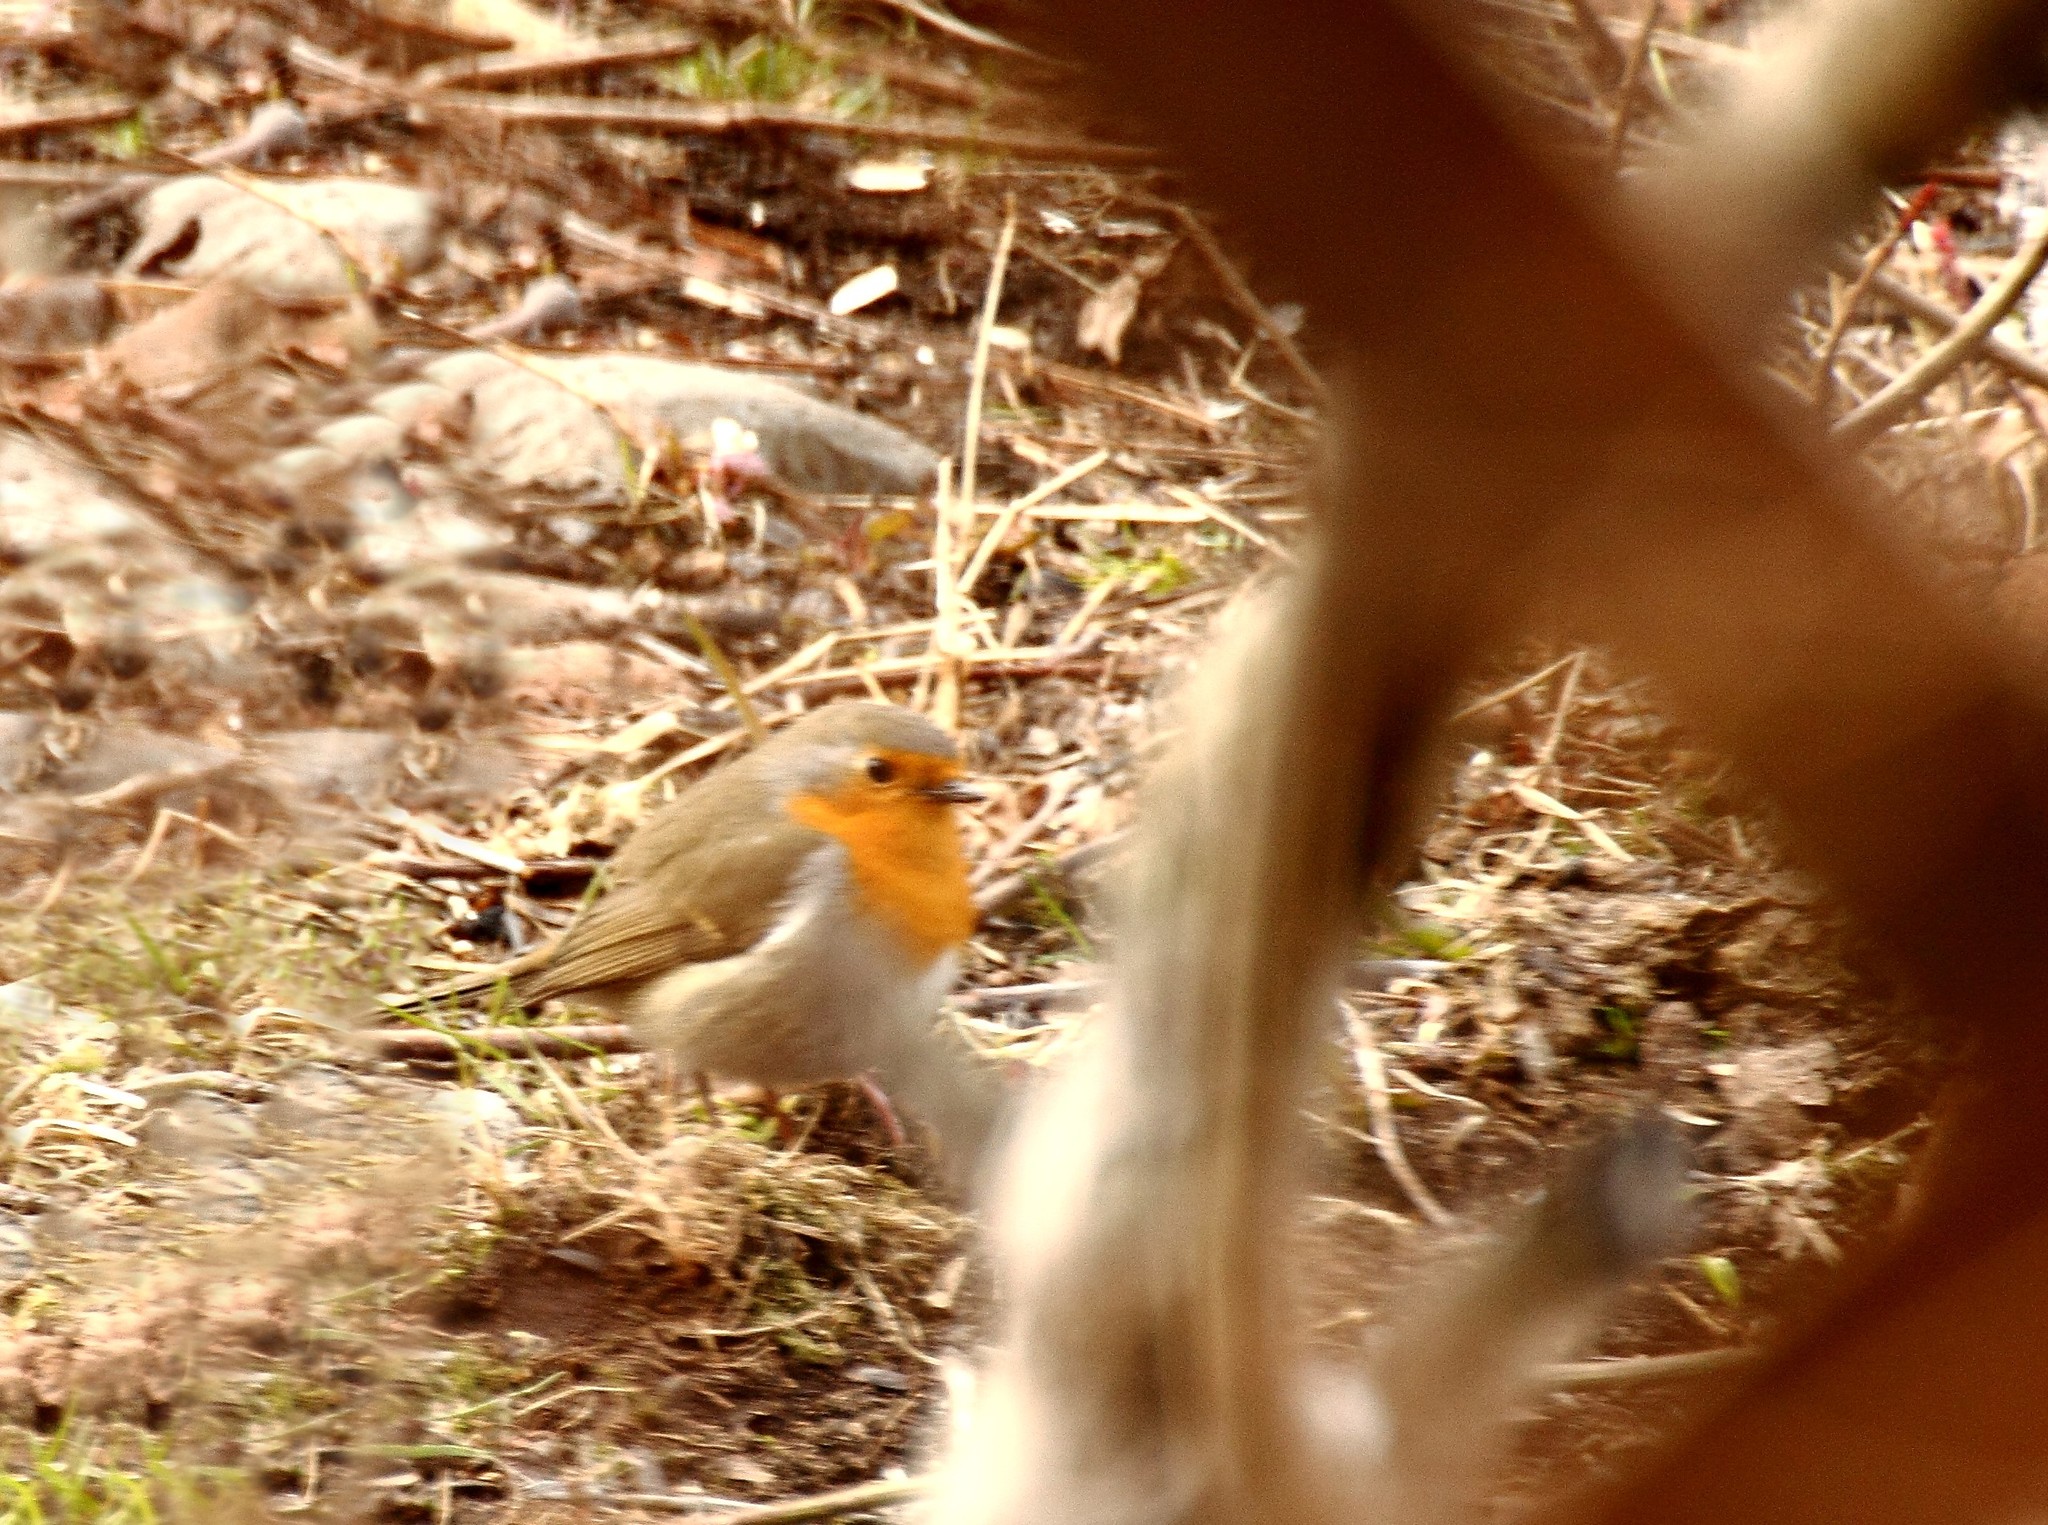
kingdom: Animalia
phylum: Chordata
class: Aves
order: Passeriformes
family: Muscicapidae
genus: Erithacus
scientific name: Erithacus rubecula
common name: European robin
